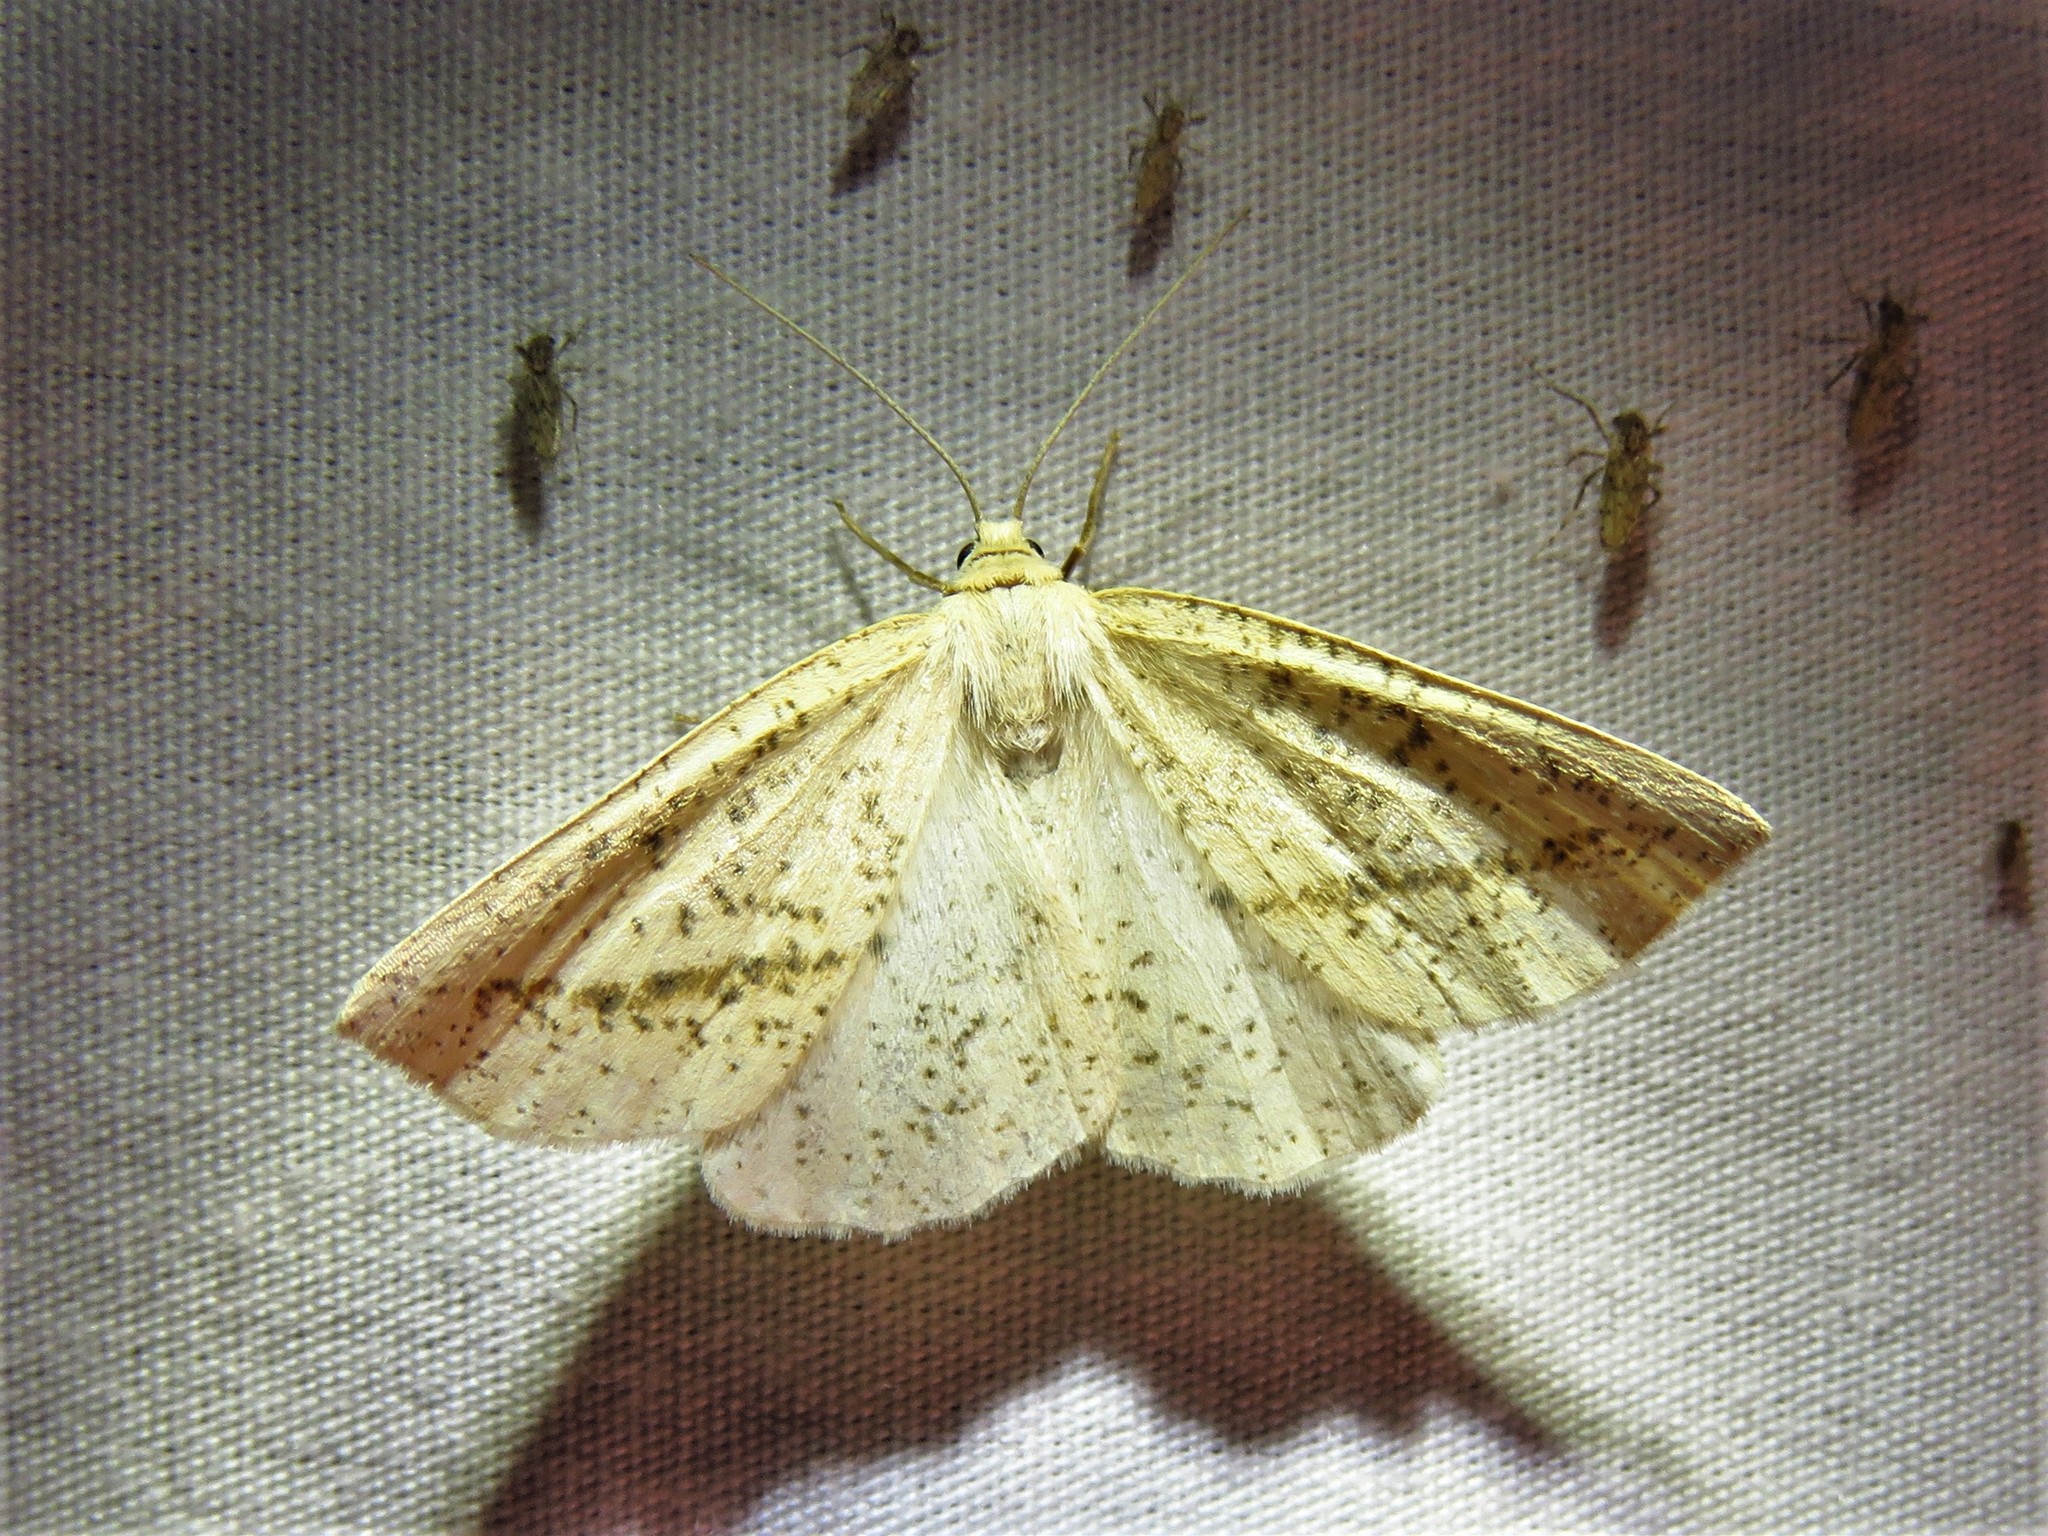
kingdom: Animalia
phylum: Arthropoda
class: Insecta
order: Lepidoptera
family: Geometridae
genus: Lychnosea
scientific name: Lychnosea intermicata
